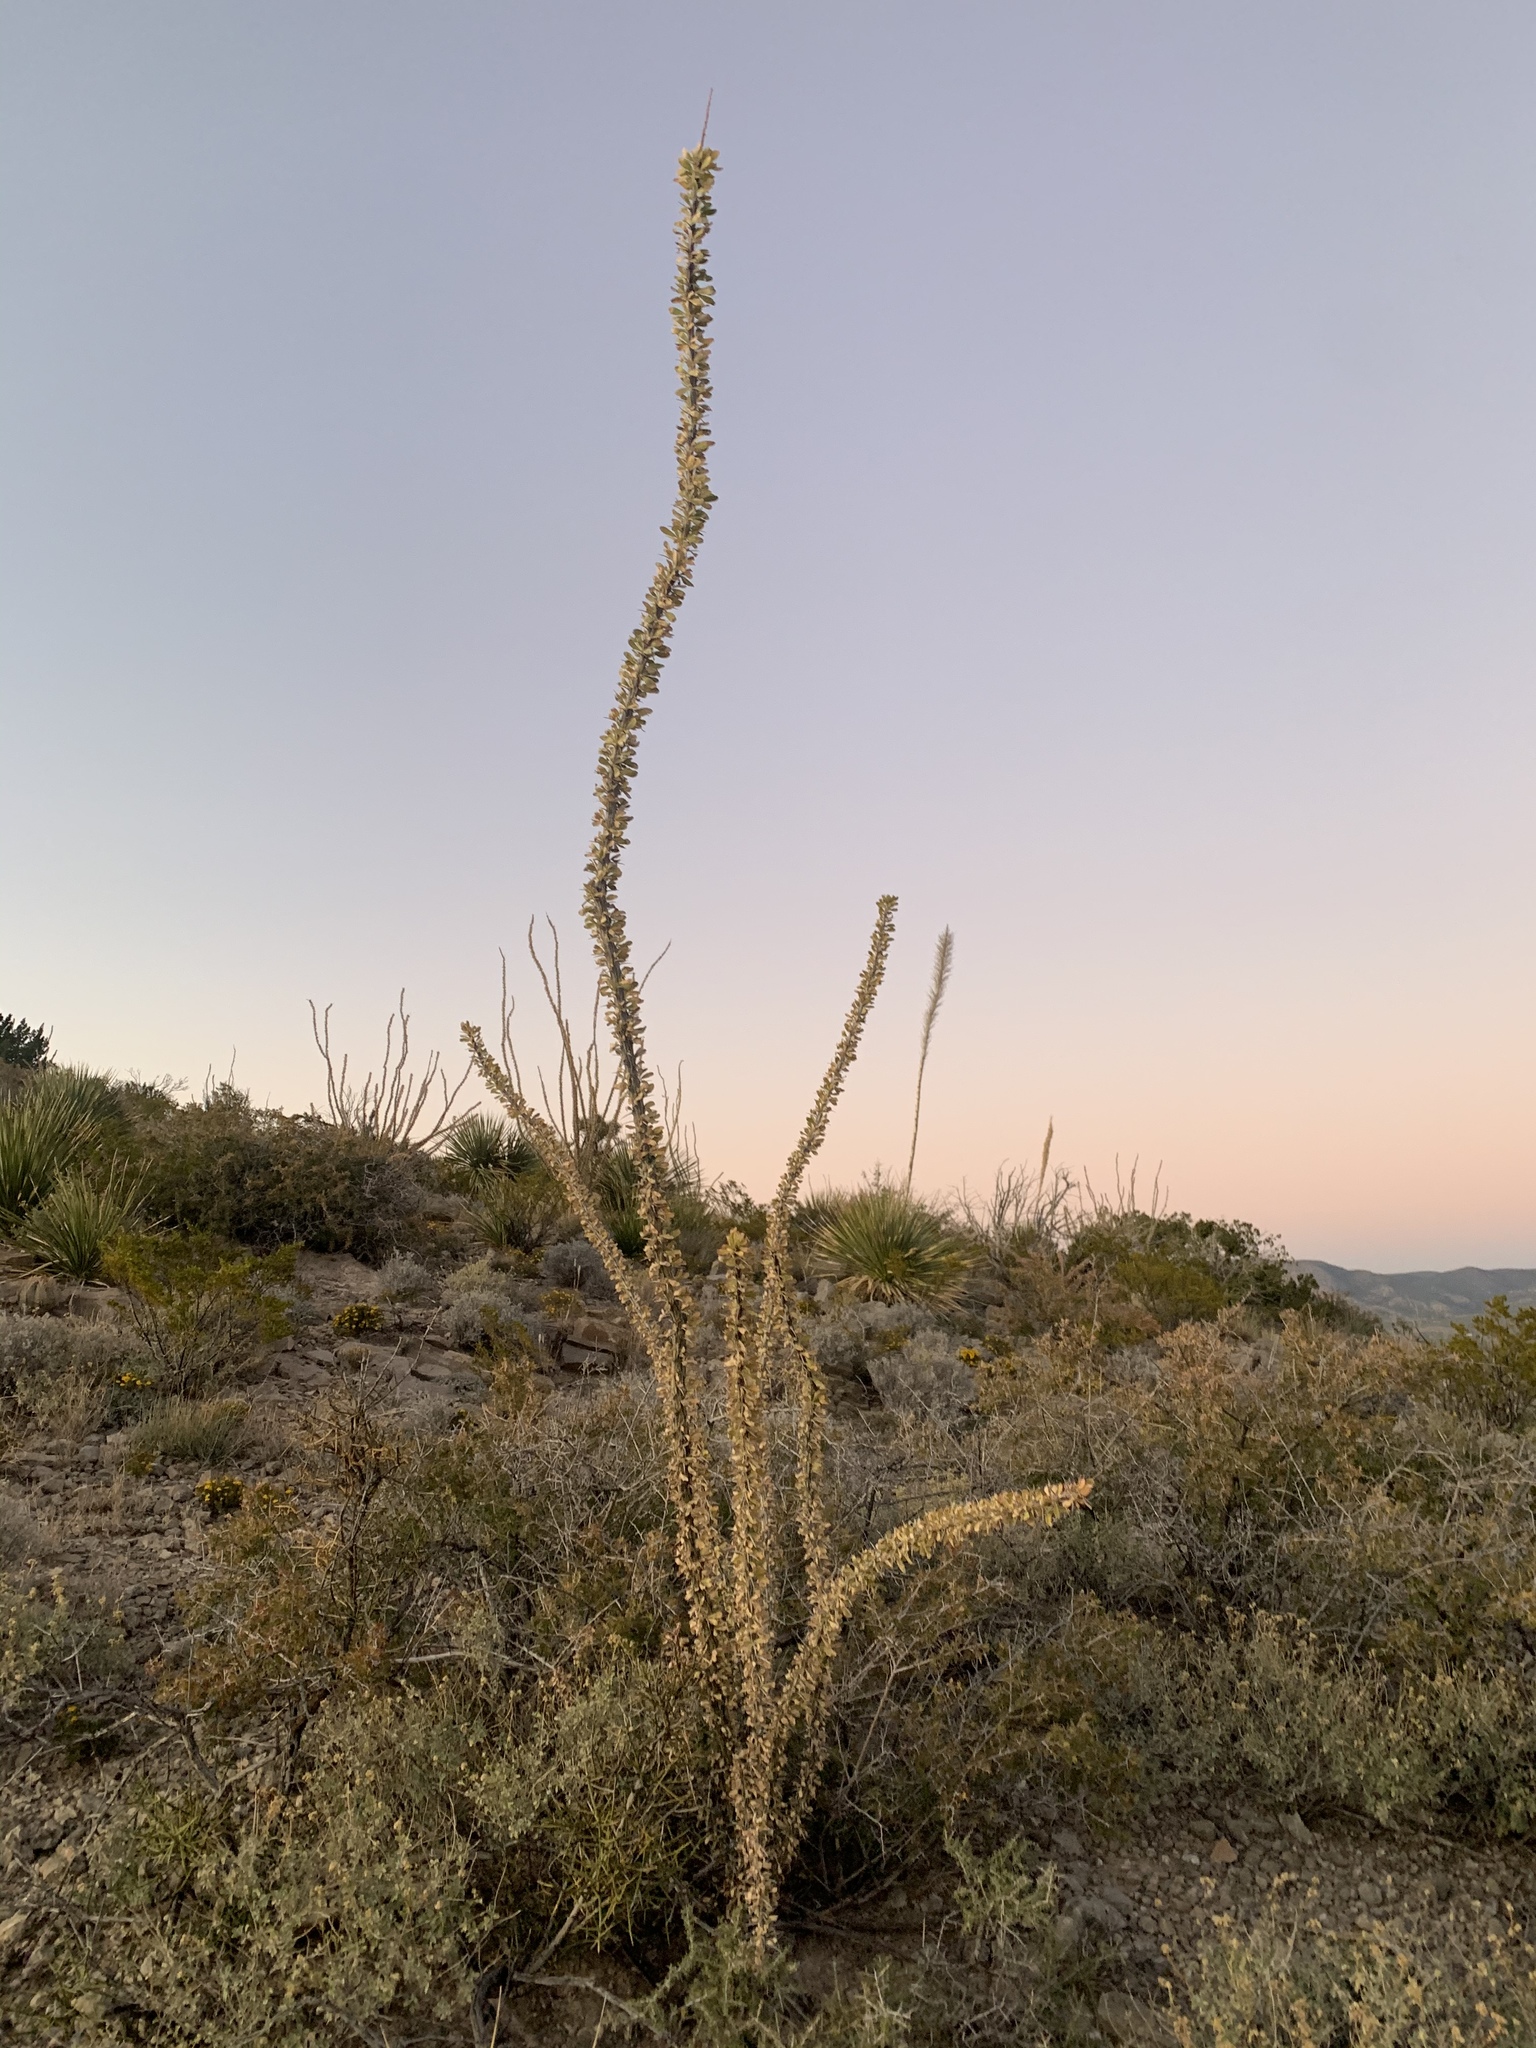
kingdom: Plantae
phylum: Tracheophyta
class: Magnoliopsida
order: Ericales
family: Fouquieriaceae
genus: Fouquieria
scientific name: Fouquieria splendens
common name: Vine-cactus
